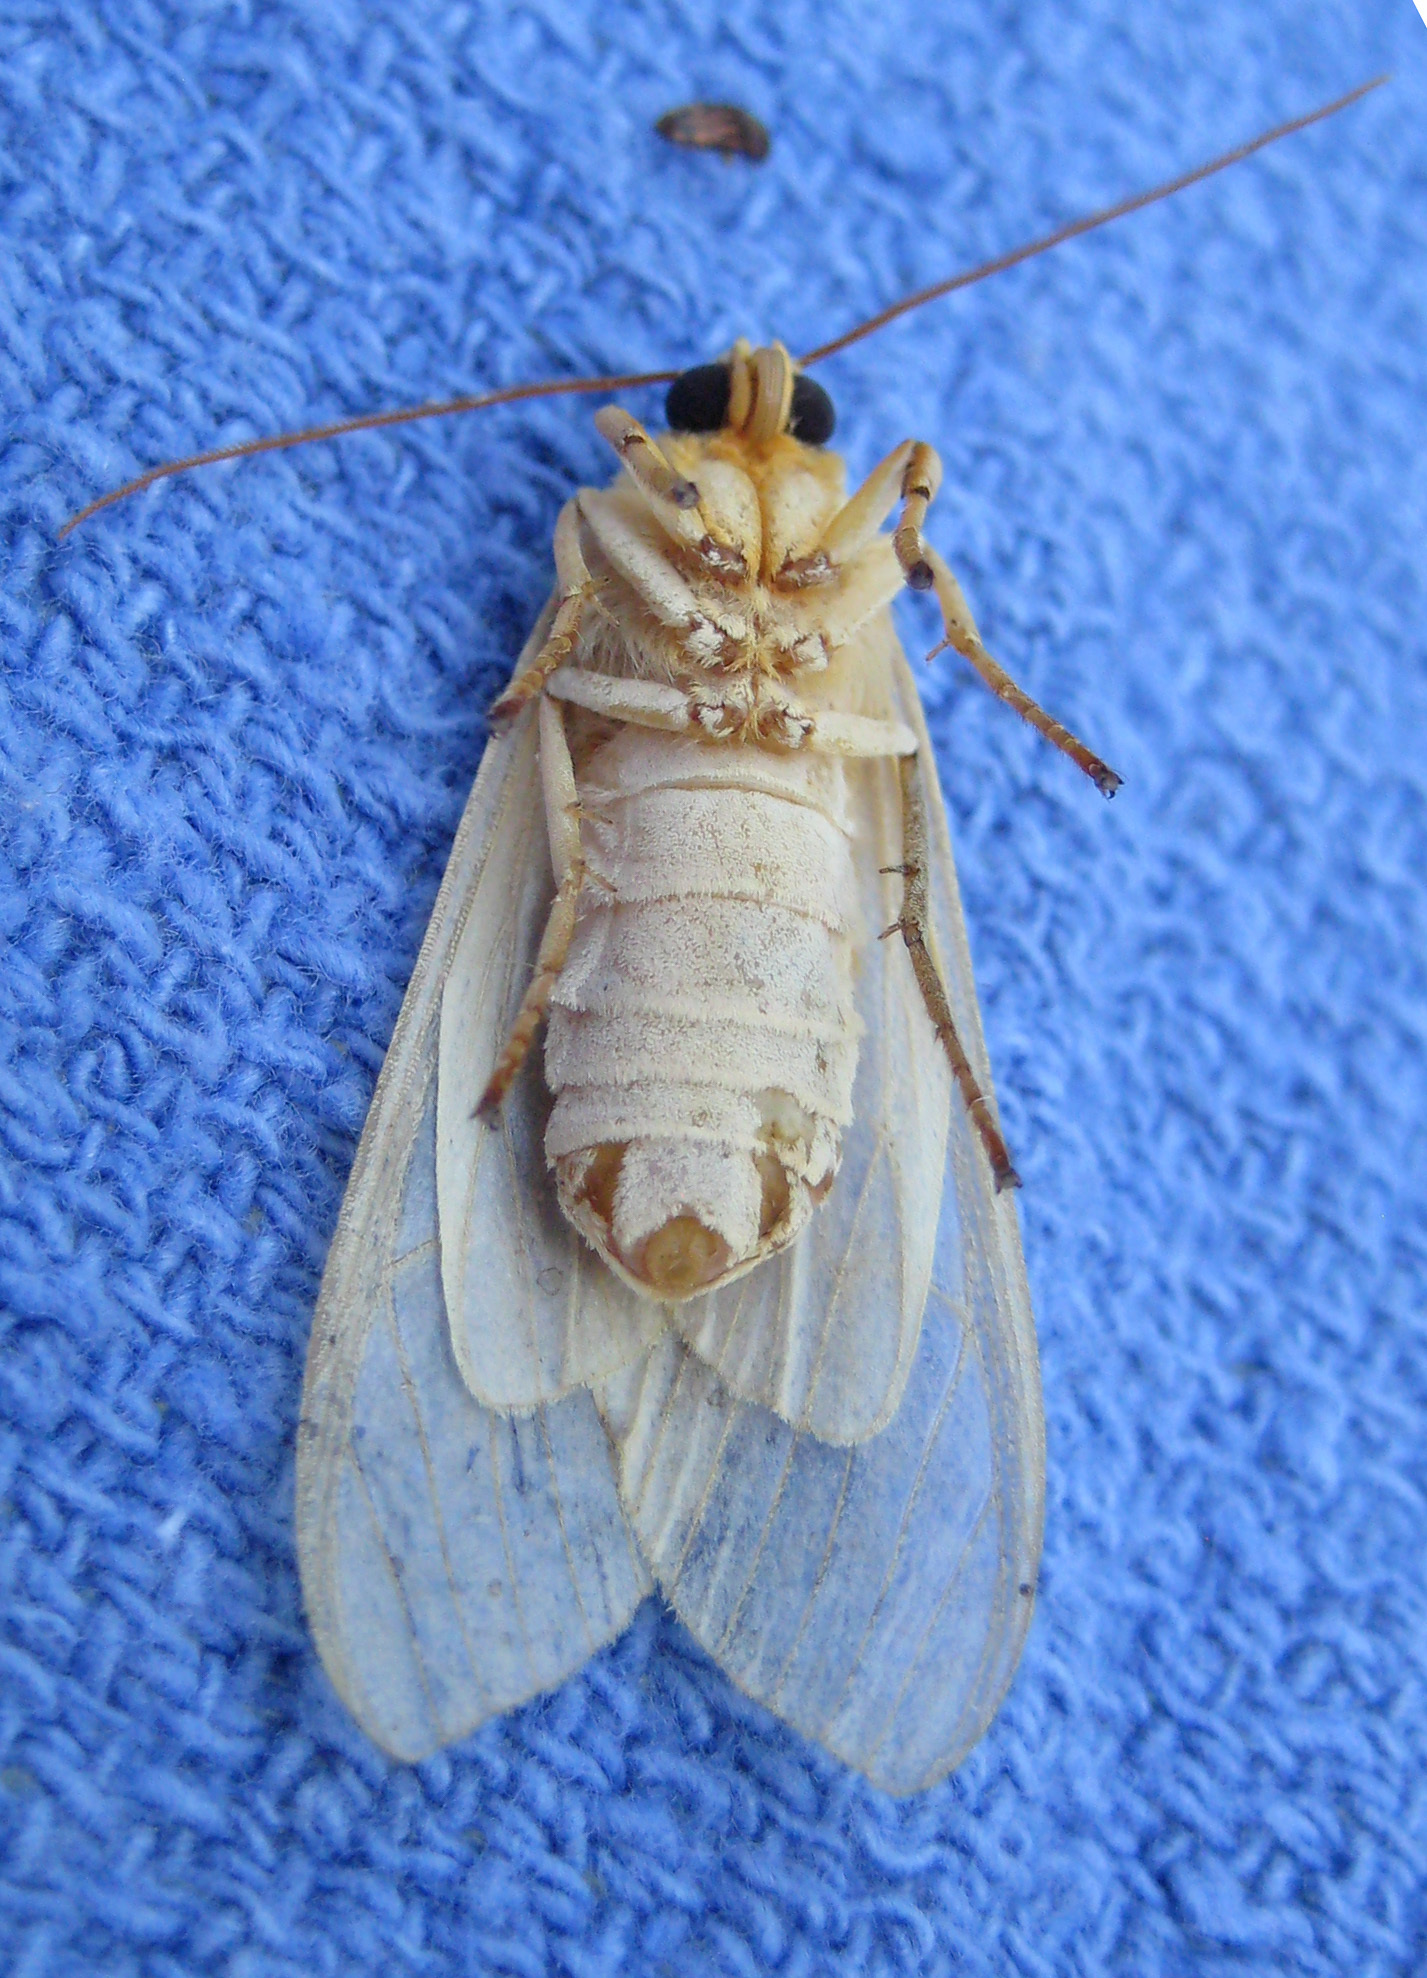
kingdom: Animalia
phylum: Arthropoda
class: Insecta
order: Lepidoptera
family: Erebidae
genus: Halysidota
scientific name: Halysidota
